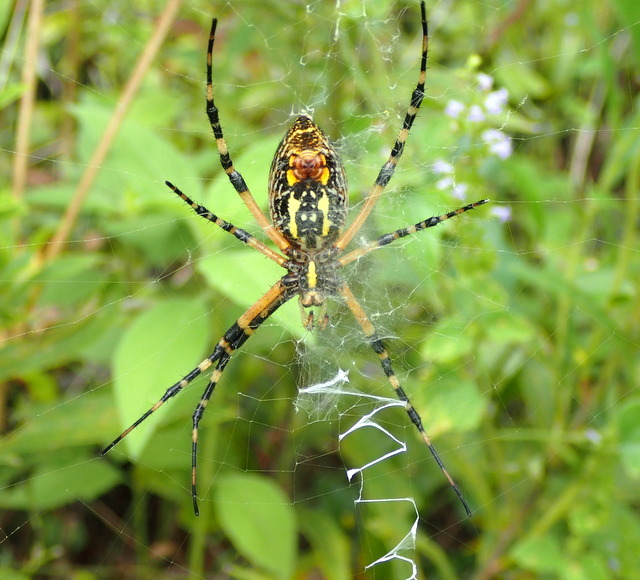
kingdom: Animalia
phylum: Arthropoda
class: Arachnida
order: Araneae
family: Araneidae
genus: Argiope
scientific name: Argiope aurantia
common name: Orb weavers
